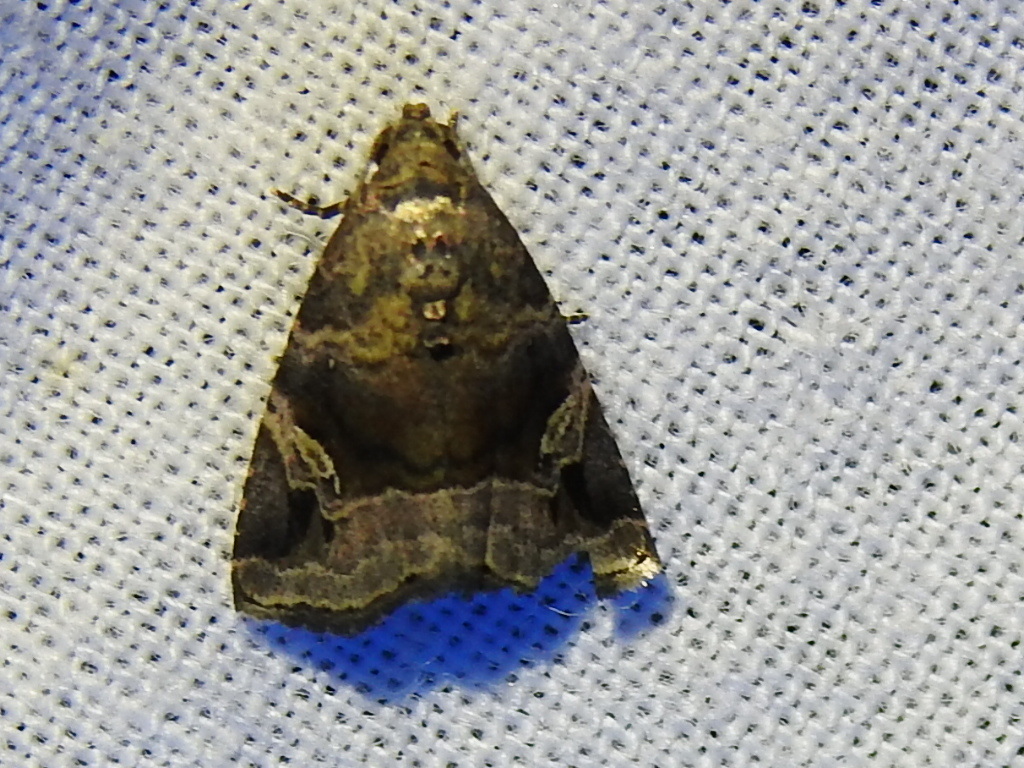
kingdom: Animalia
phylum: Arthropoda
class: Insecta
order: Lepidoptera
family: Noctuidae
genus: Ozarba
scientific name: Ozarba nebula
